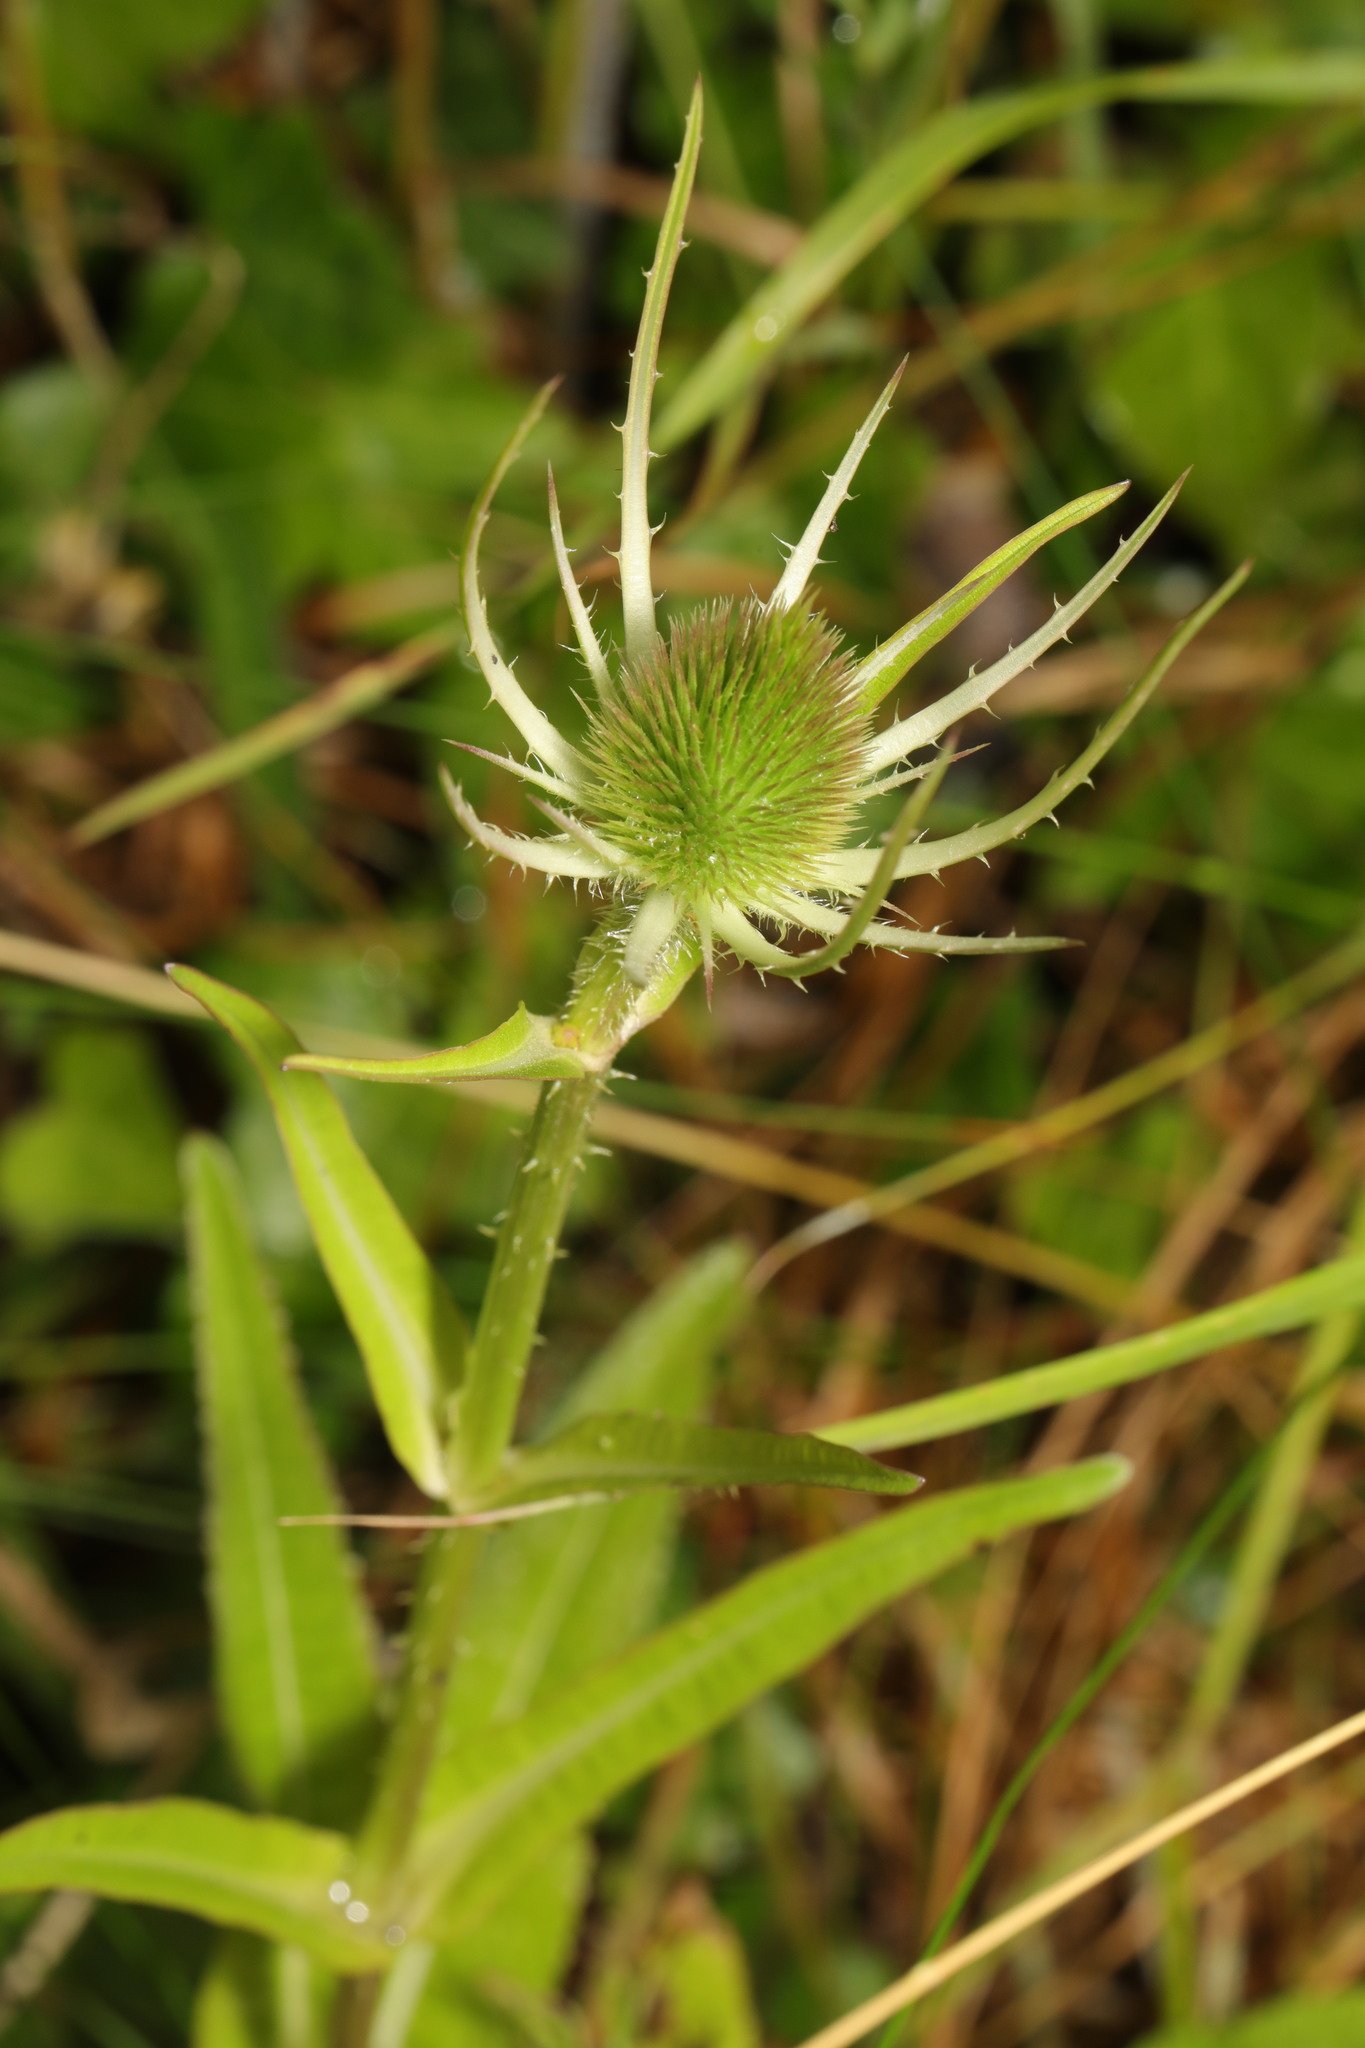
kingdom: Plantae
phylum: Tracheophyta
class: Magnoliopsida
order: Dipsacales
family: Caprifoliaceae
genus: Dipsacus
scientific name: Dipsacus fullonum
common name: Teasel
